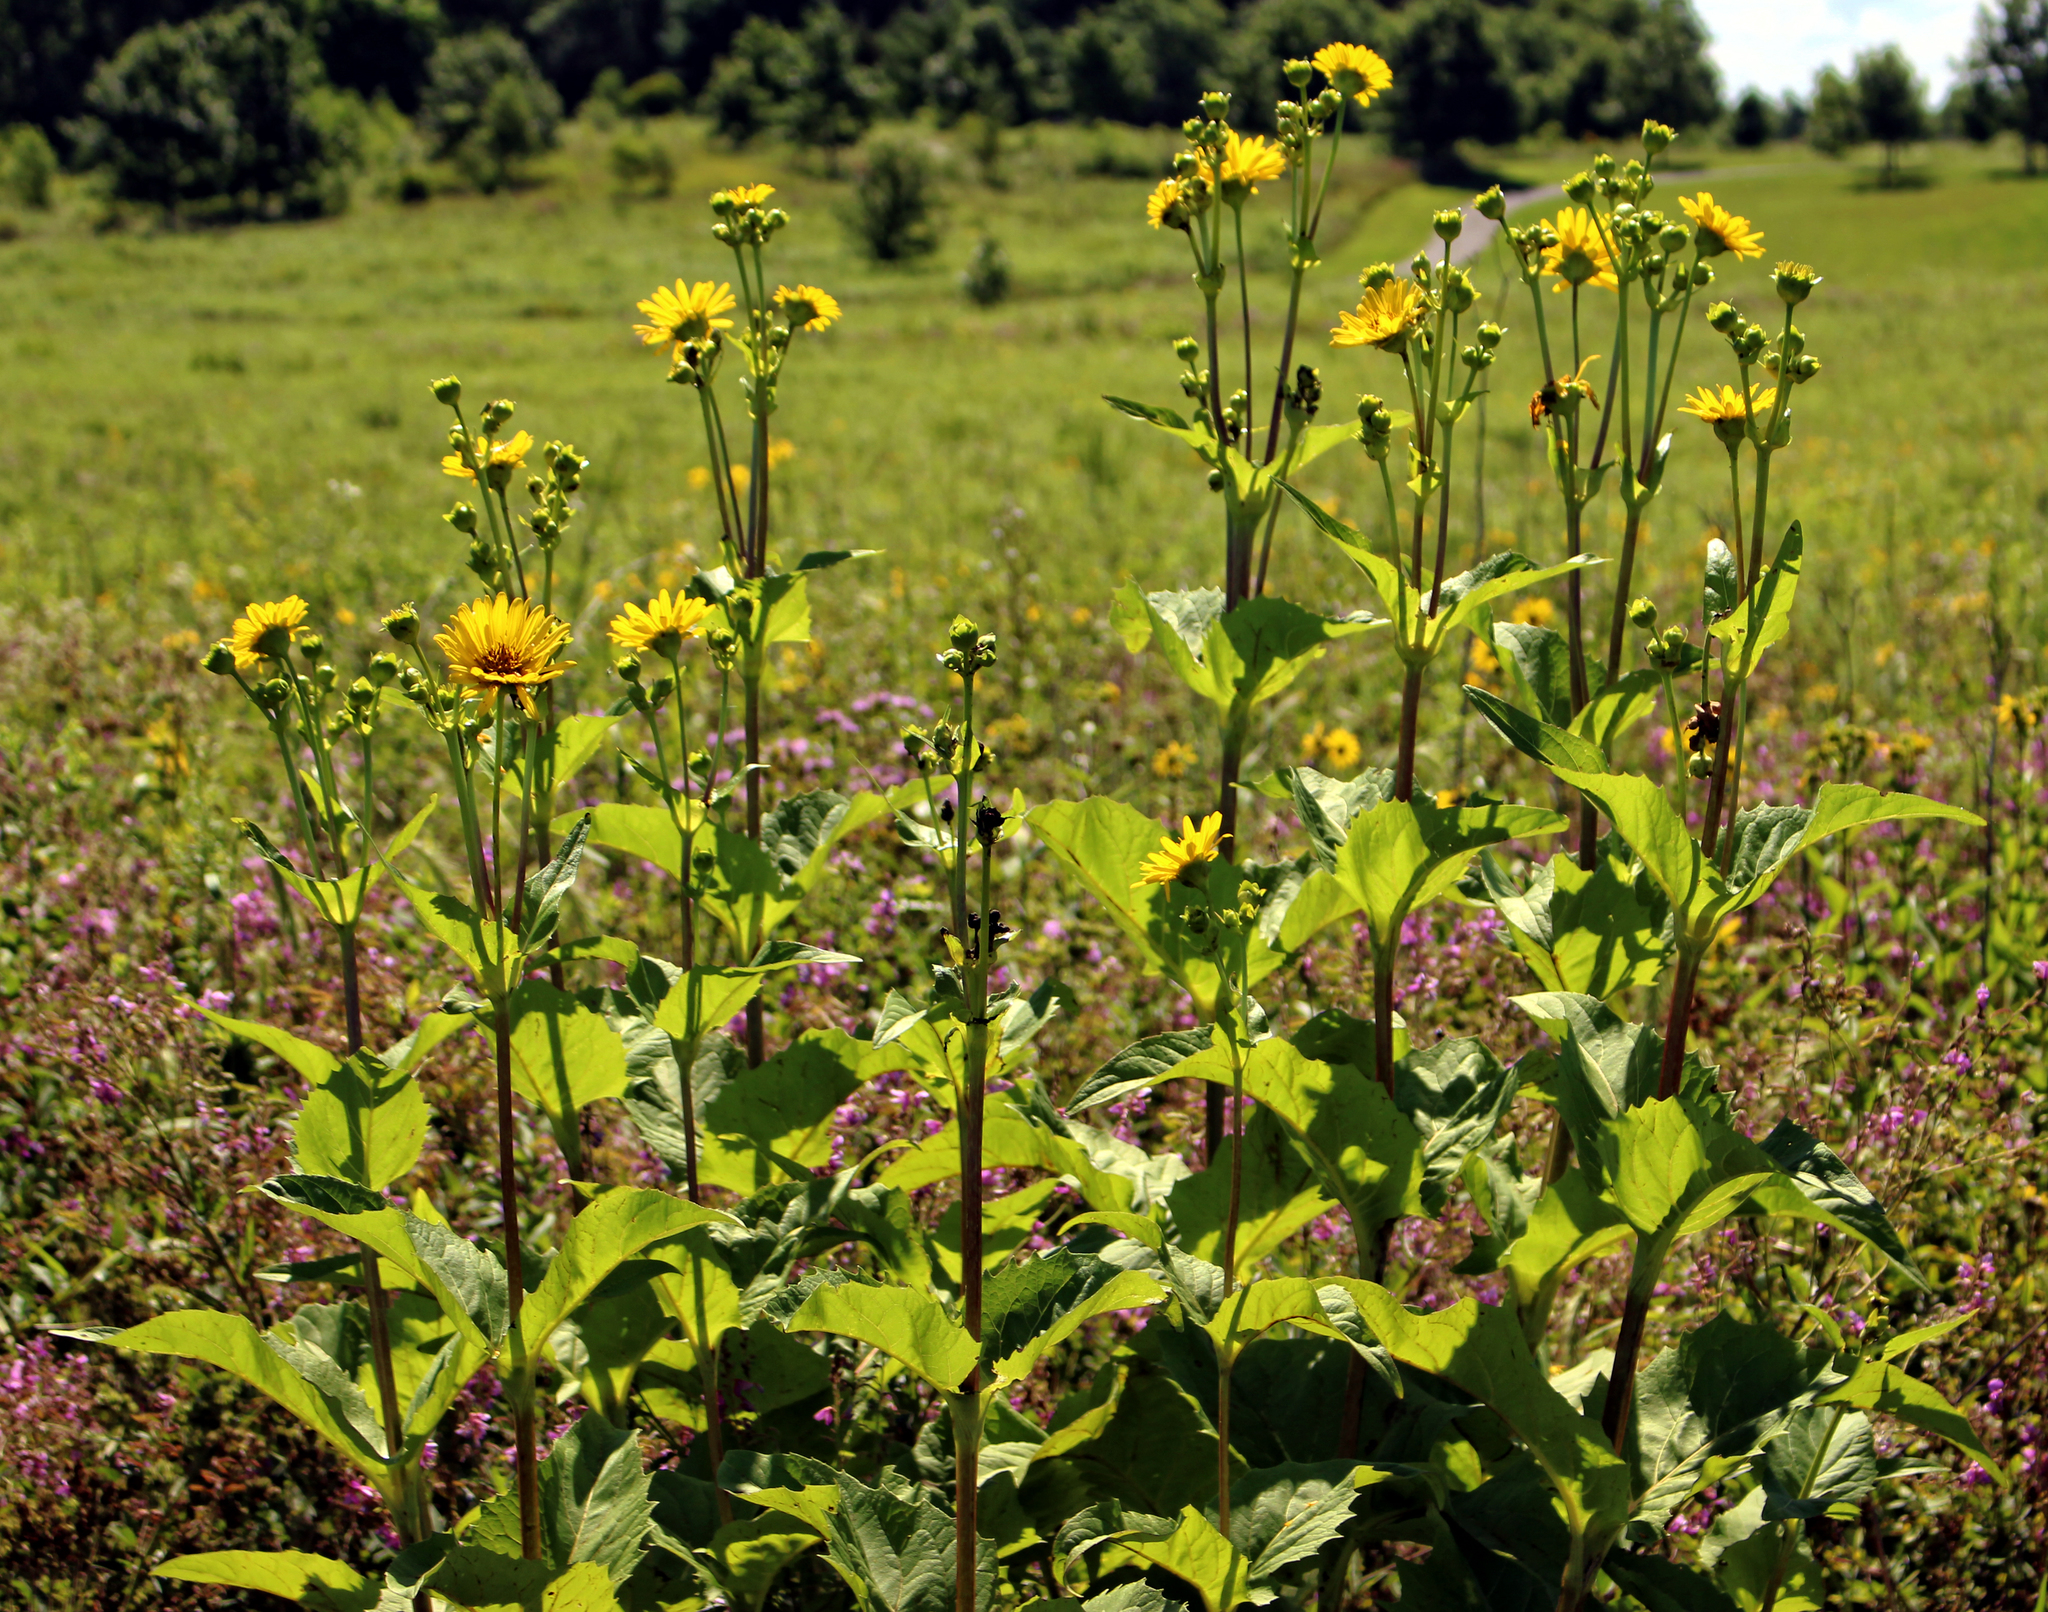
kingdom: Plantae
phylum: Tracheophyta
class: Magnoliopsida
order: Asterales
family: Asteraceae
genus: Silphium
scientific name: Silphium perfoliatum
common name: Cup-plant
